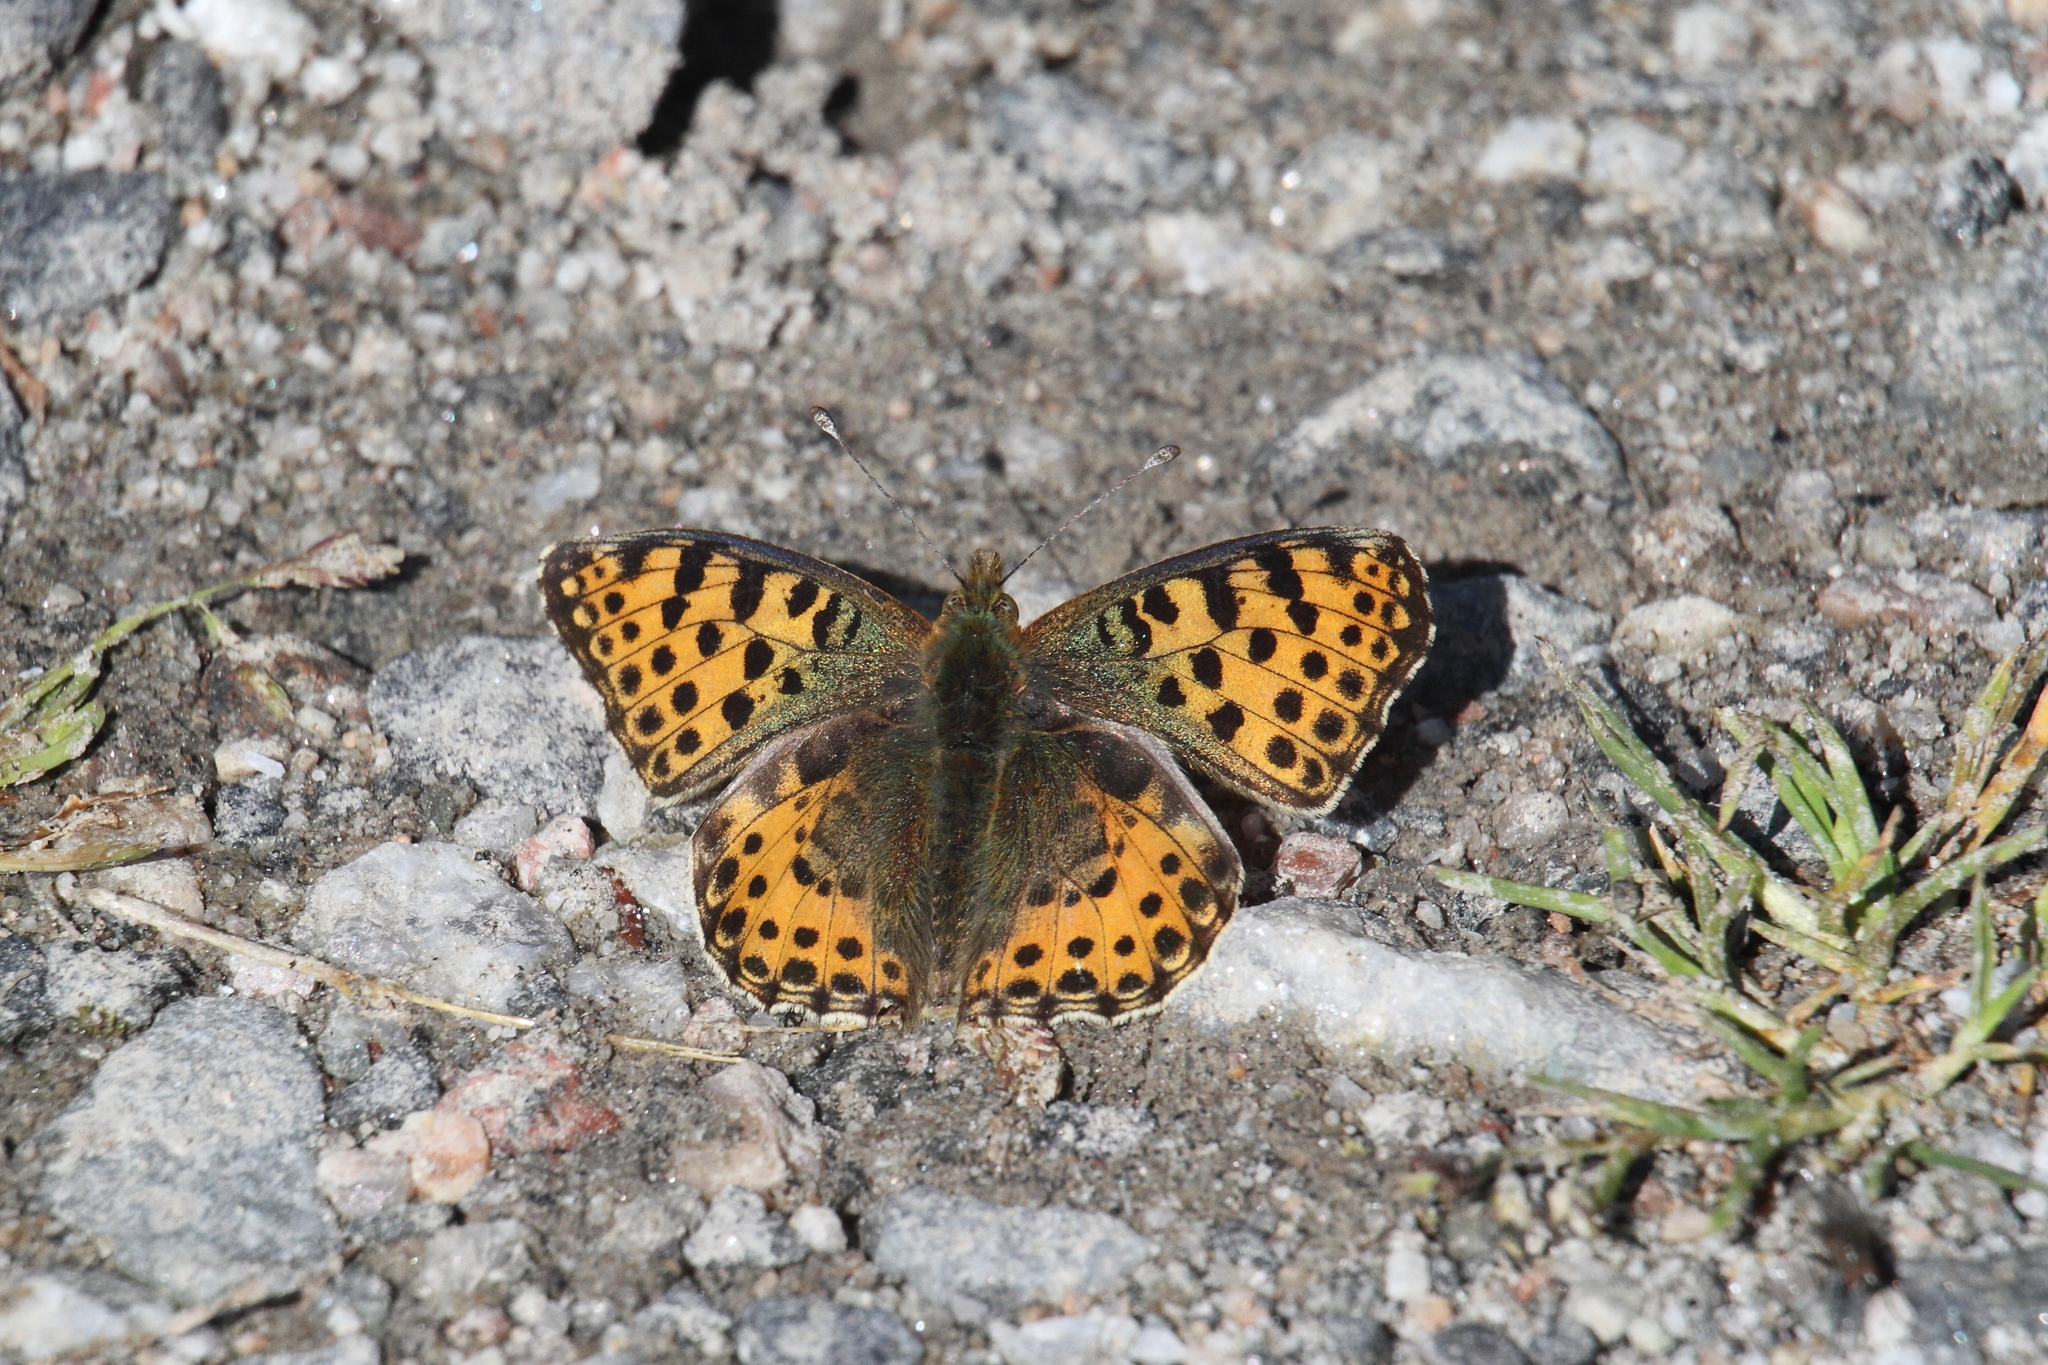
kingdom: Animalia
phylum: Arthropoda
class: Insecta
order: Lepidoptera
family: Nymphalidae
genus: Issoria
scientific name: Issoria lathonia
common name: Queen of spain fritillary
